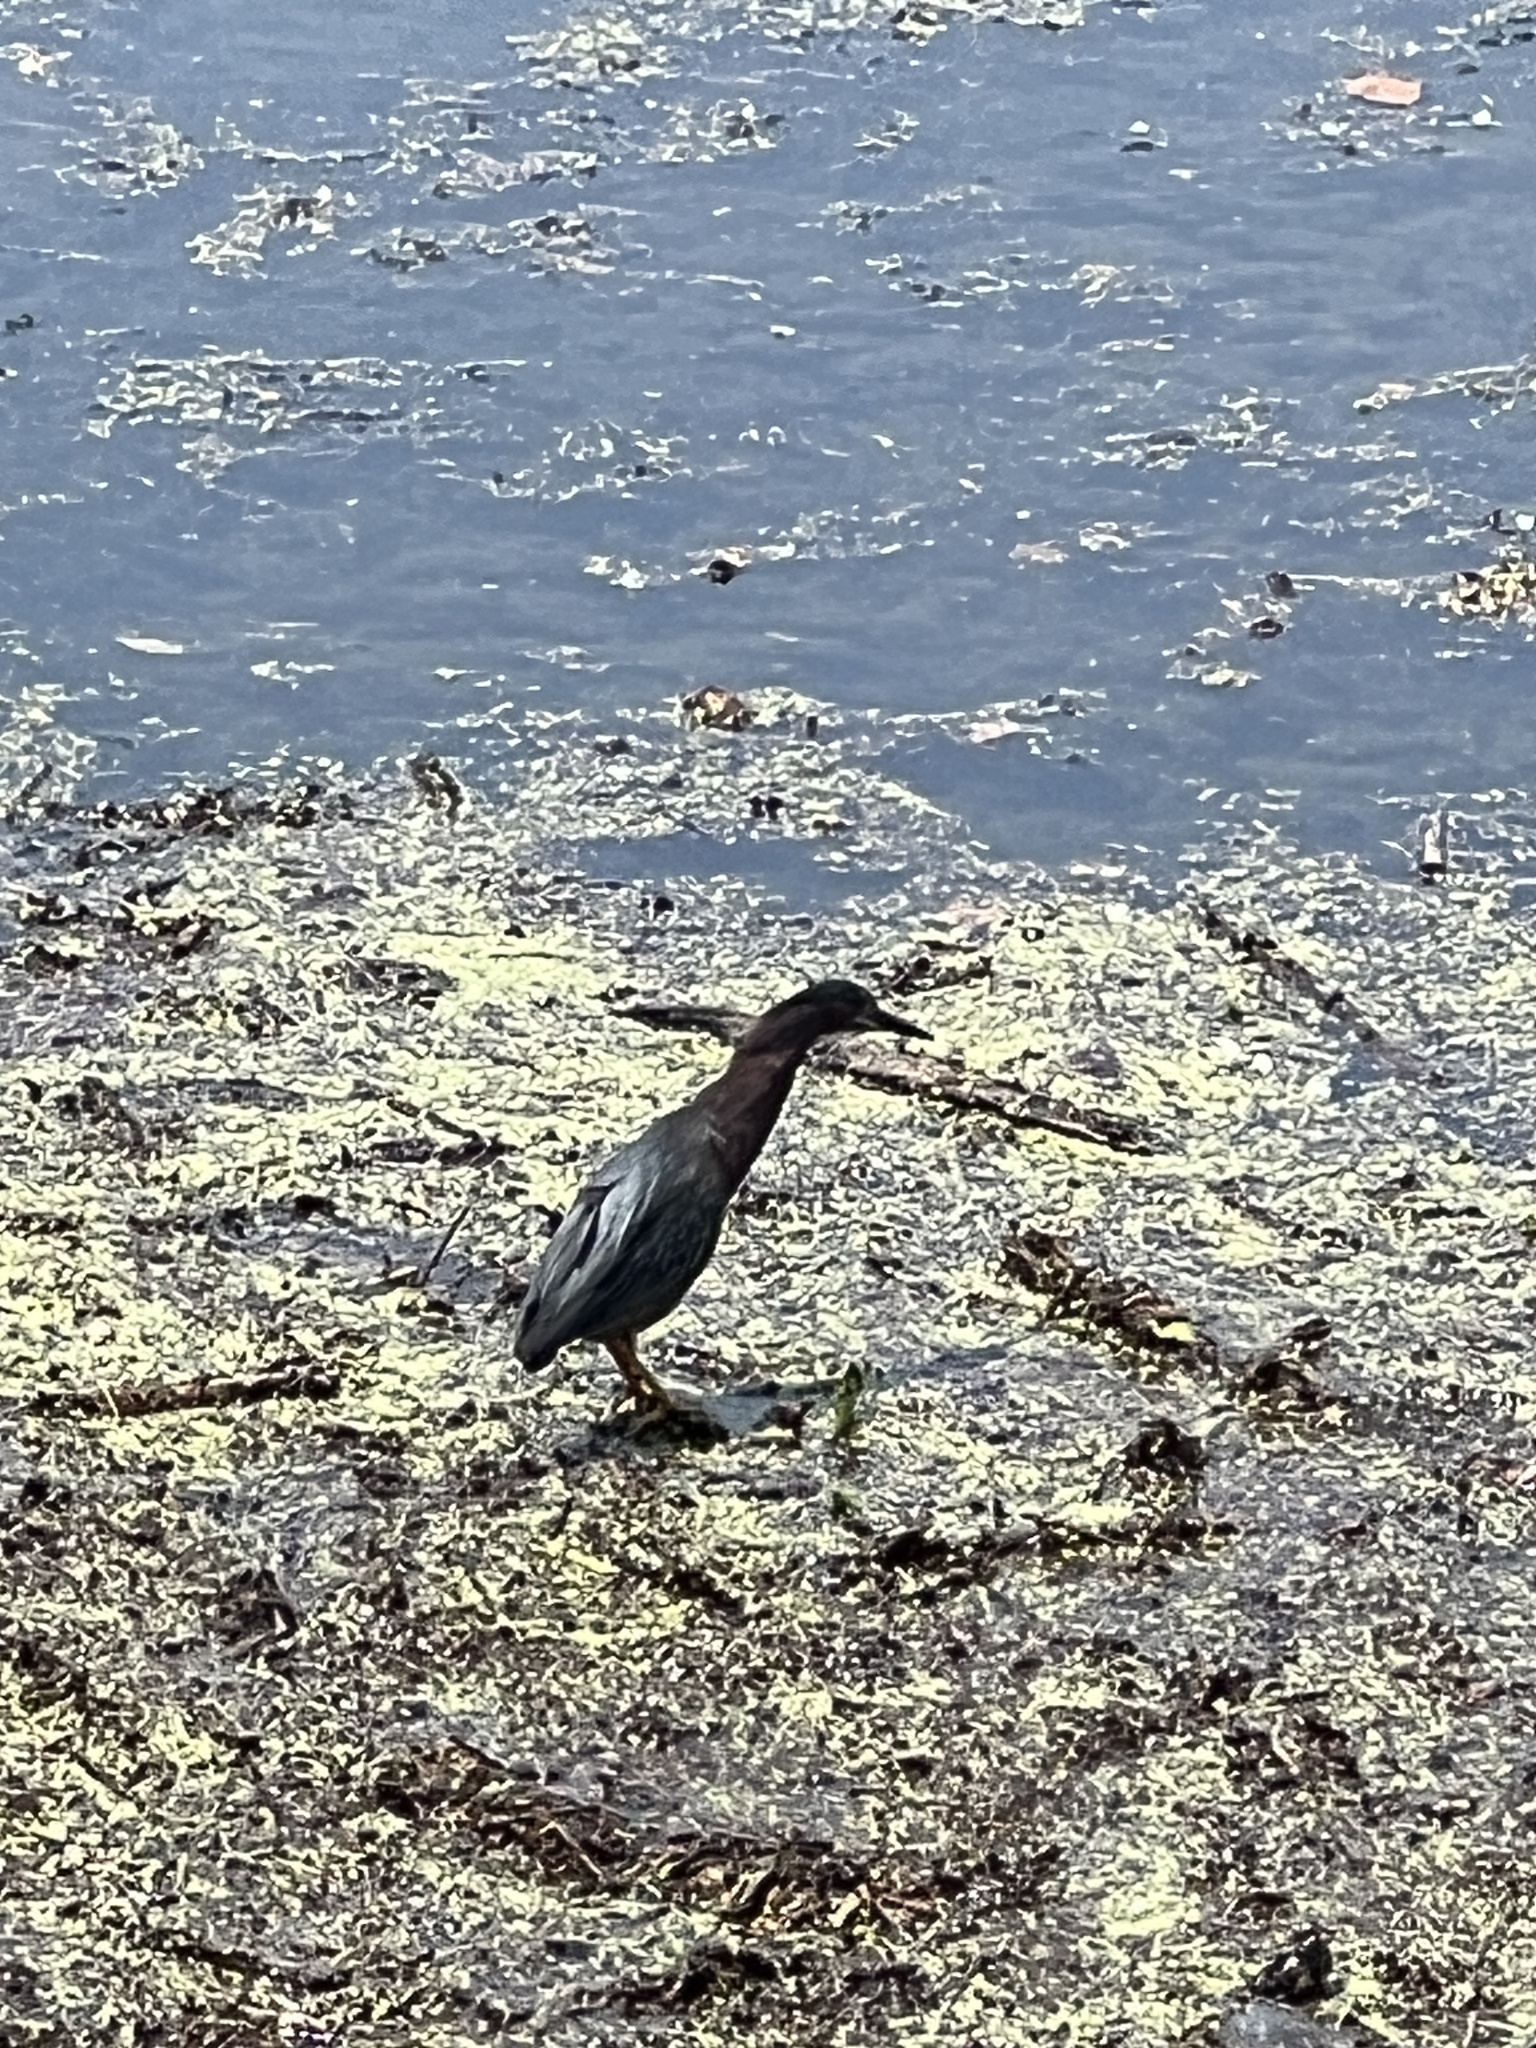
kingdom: Animalia
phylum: Chordata
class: Aves
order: Pelecaniformes
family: Ardeidae
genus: Butorides
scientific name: Butorides virescens
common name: Green heron
